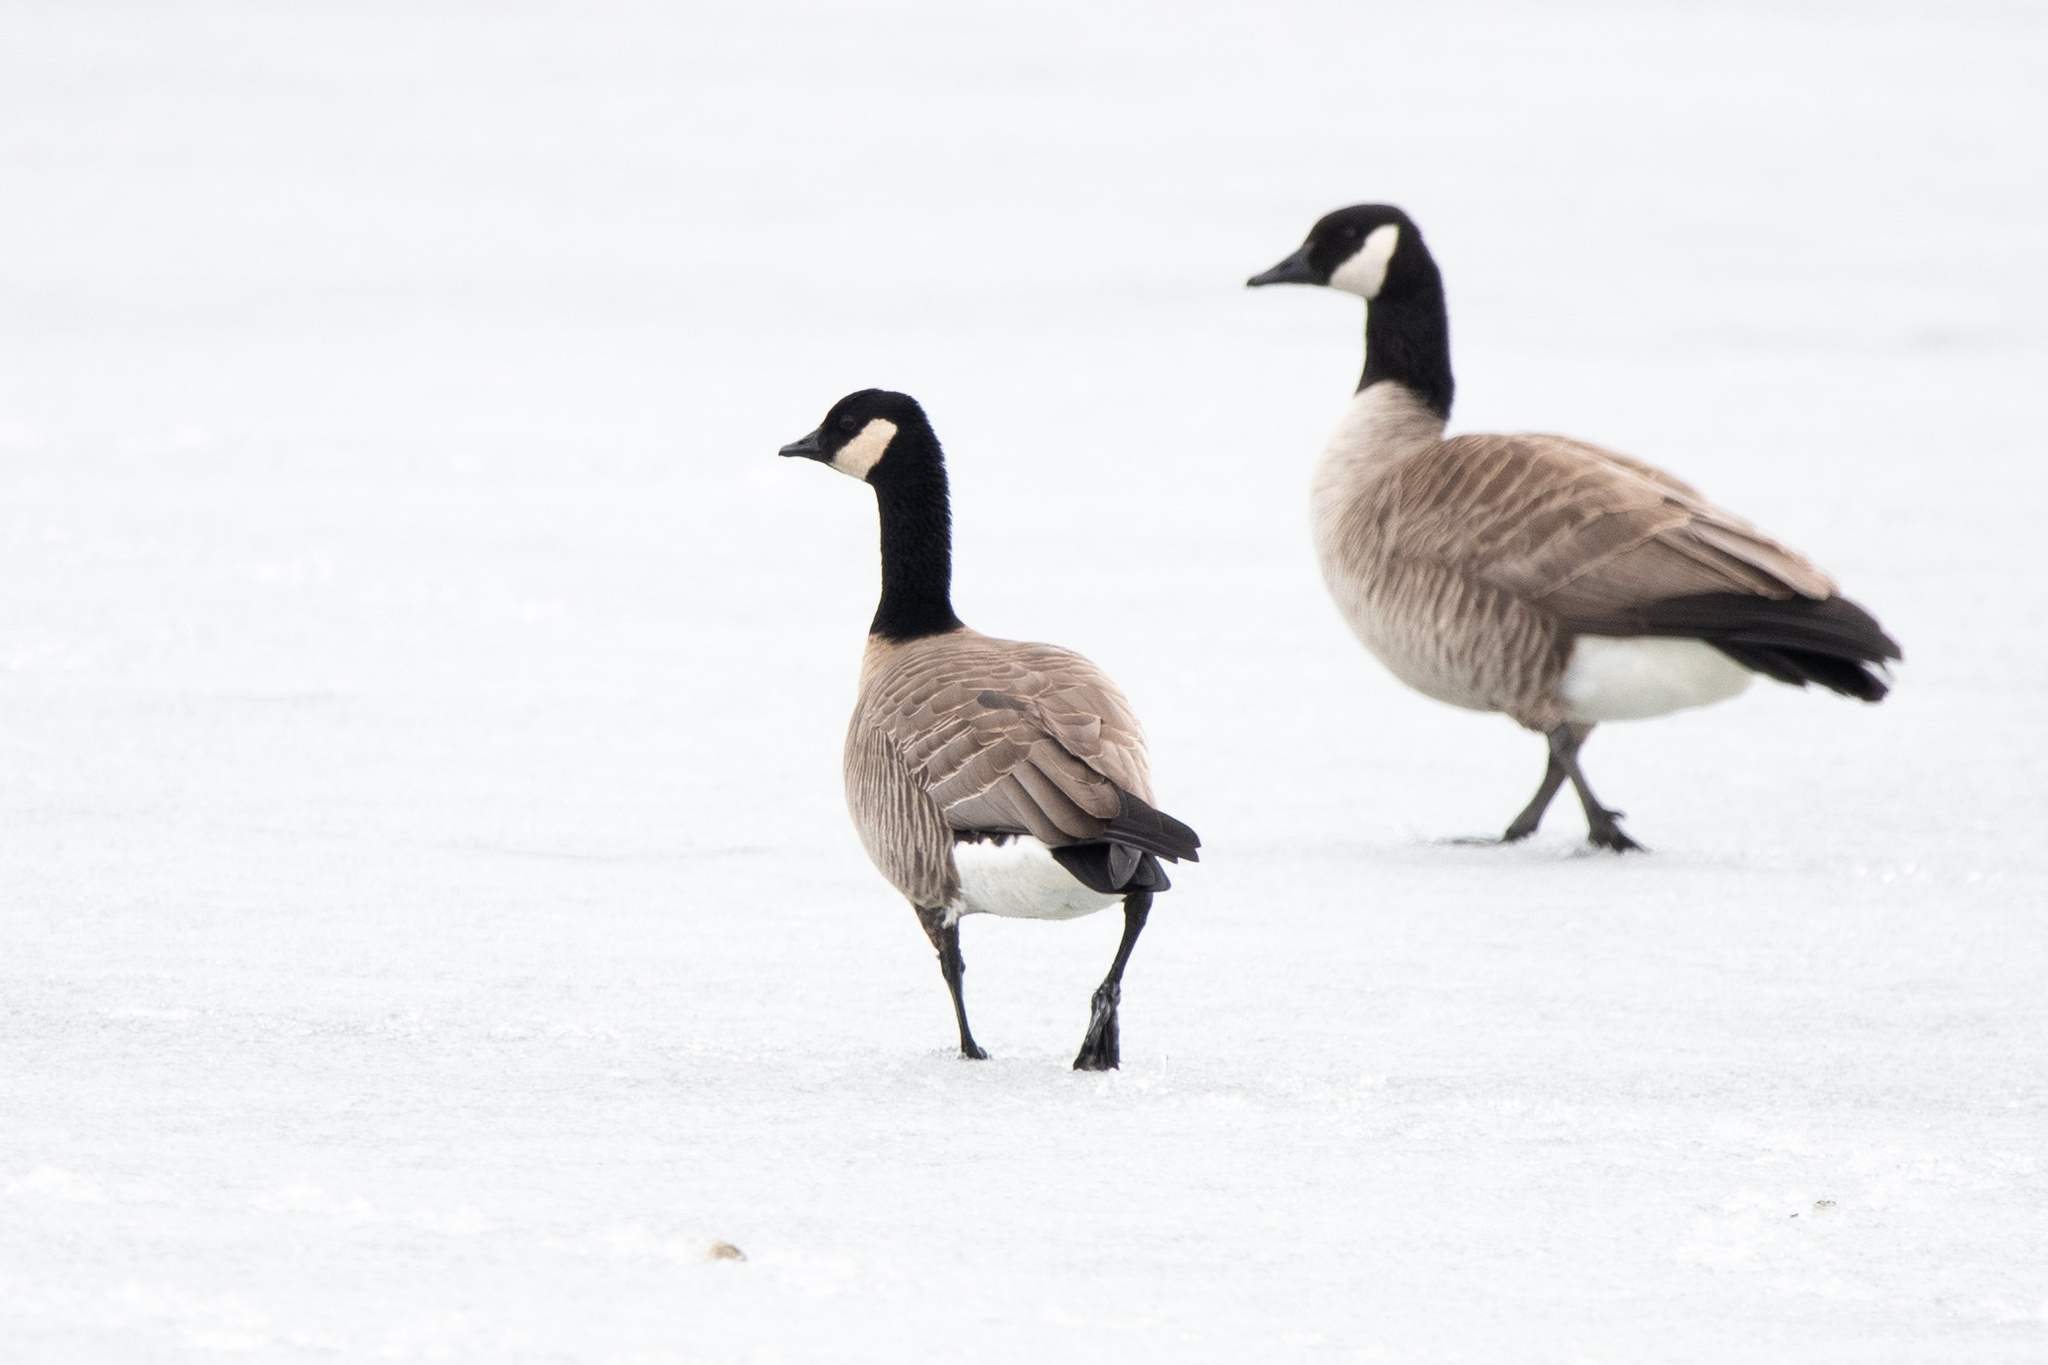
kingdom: Animalia
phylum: Chordata
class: Aves
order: Anseriformes
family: Anatidae
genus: Branta
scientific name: Branta hutchinsii
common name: Cackling goose
